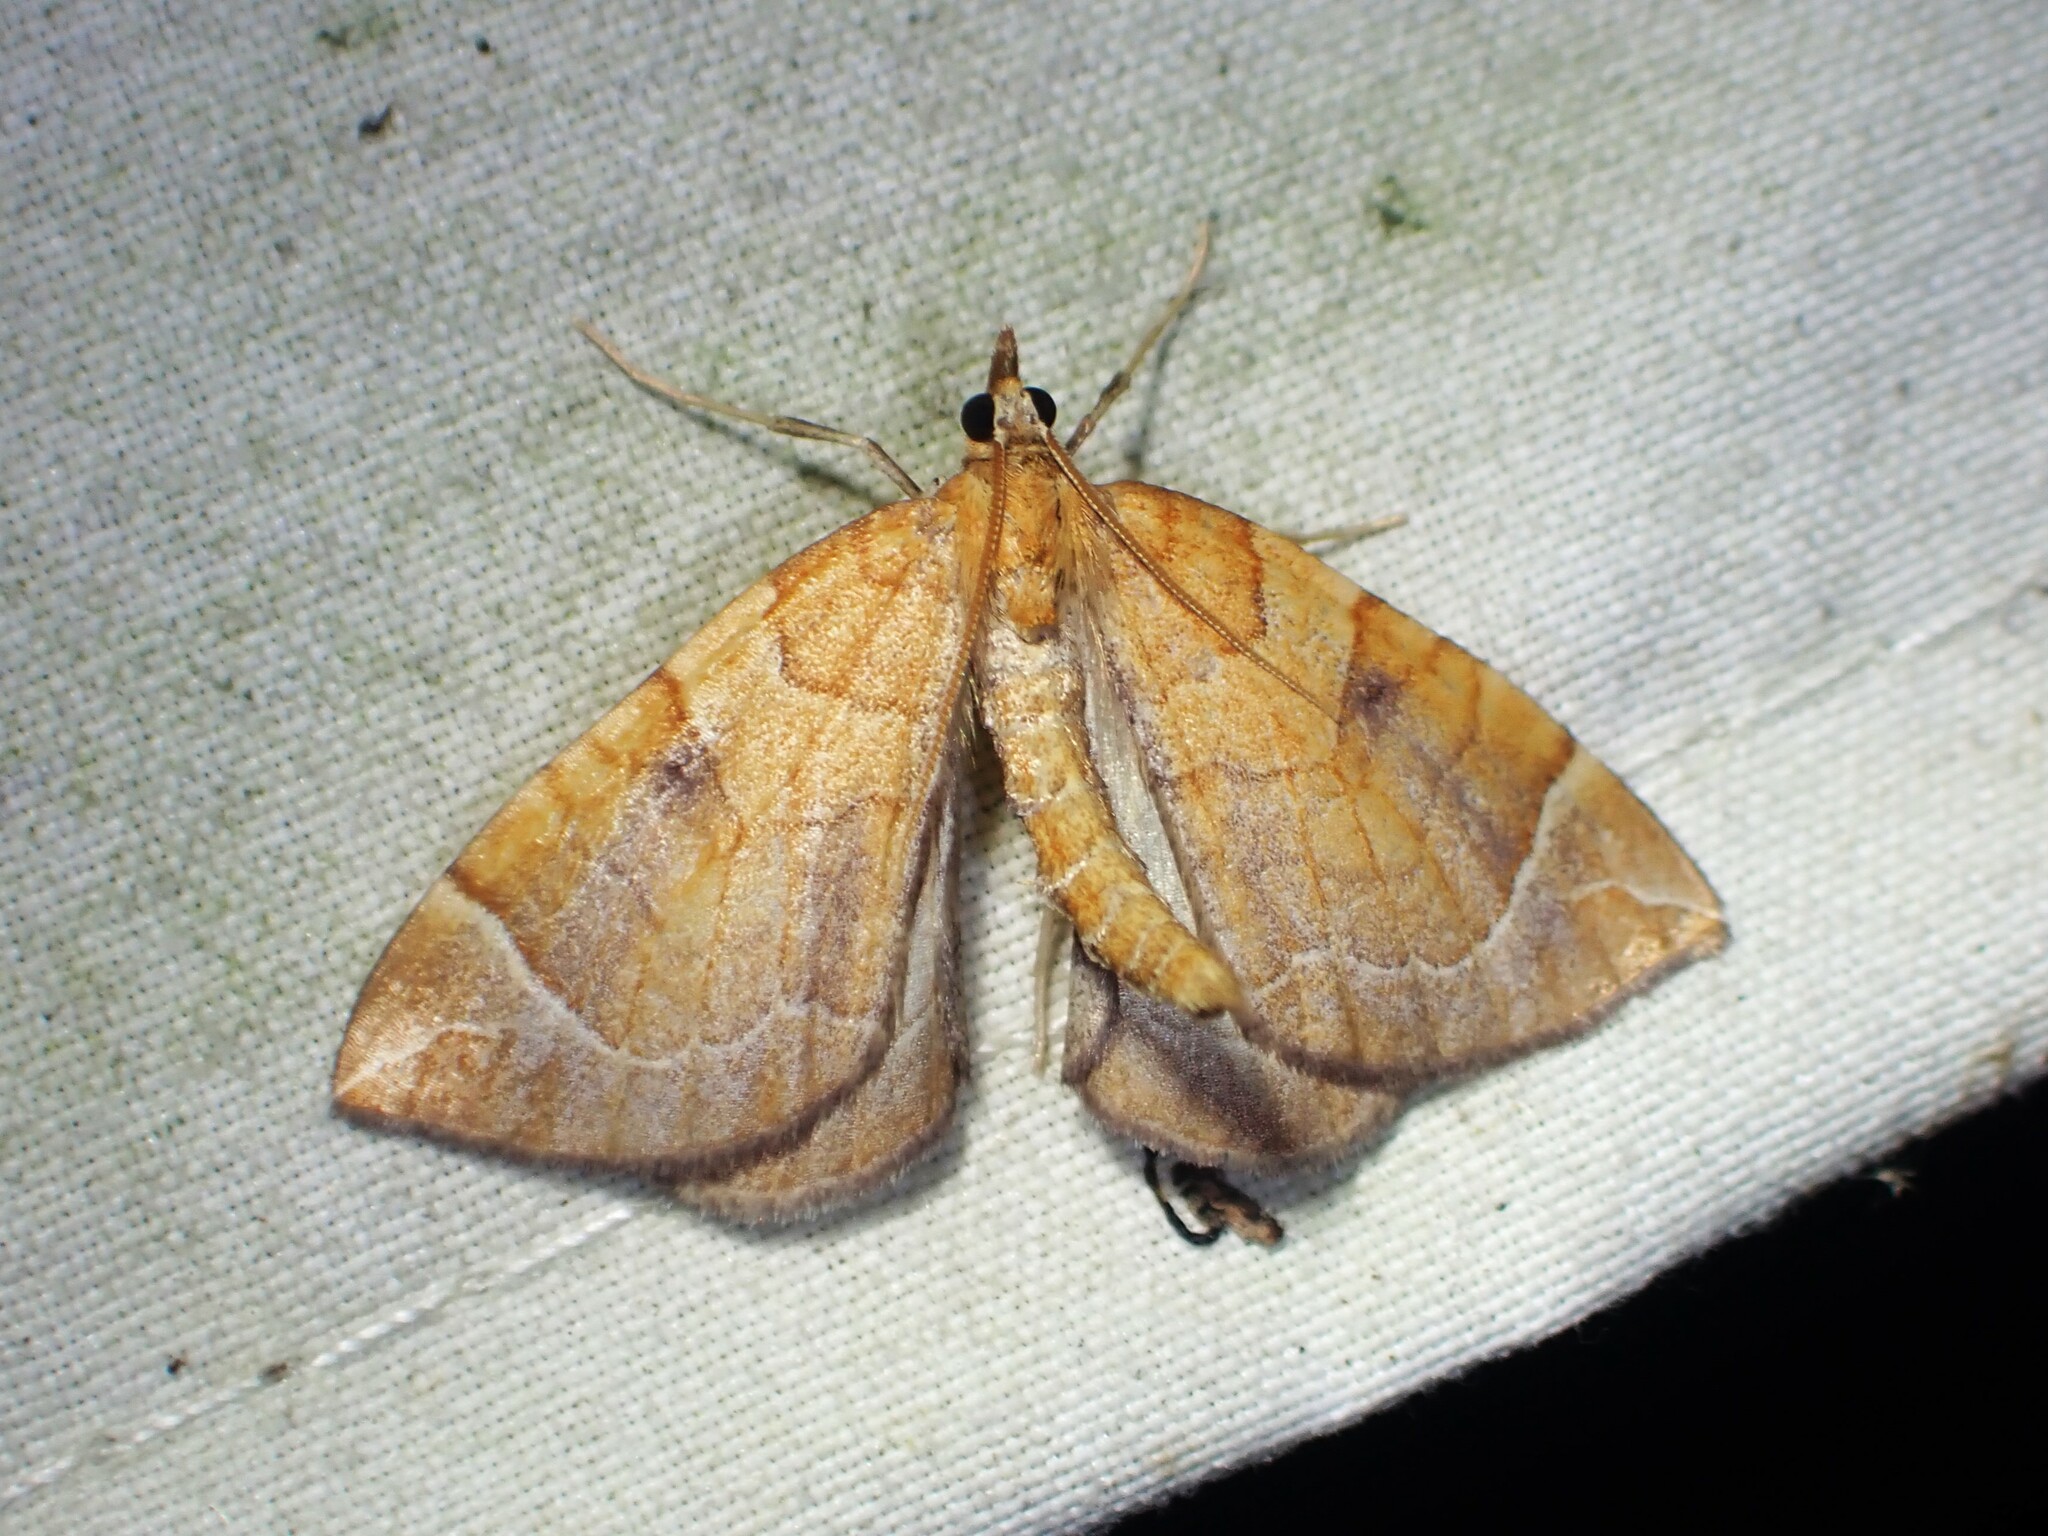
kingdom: Animalia
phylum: Arthropoda
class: Insecta
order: Lepidoptera
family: Geometridae
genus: Eulithis
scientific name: Eulithis testata
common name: Chevron
